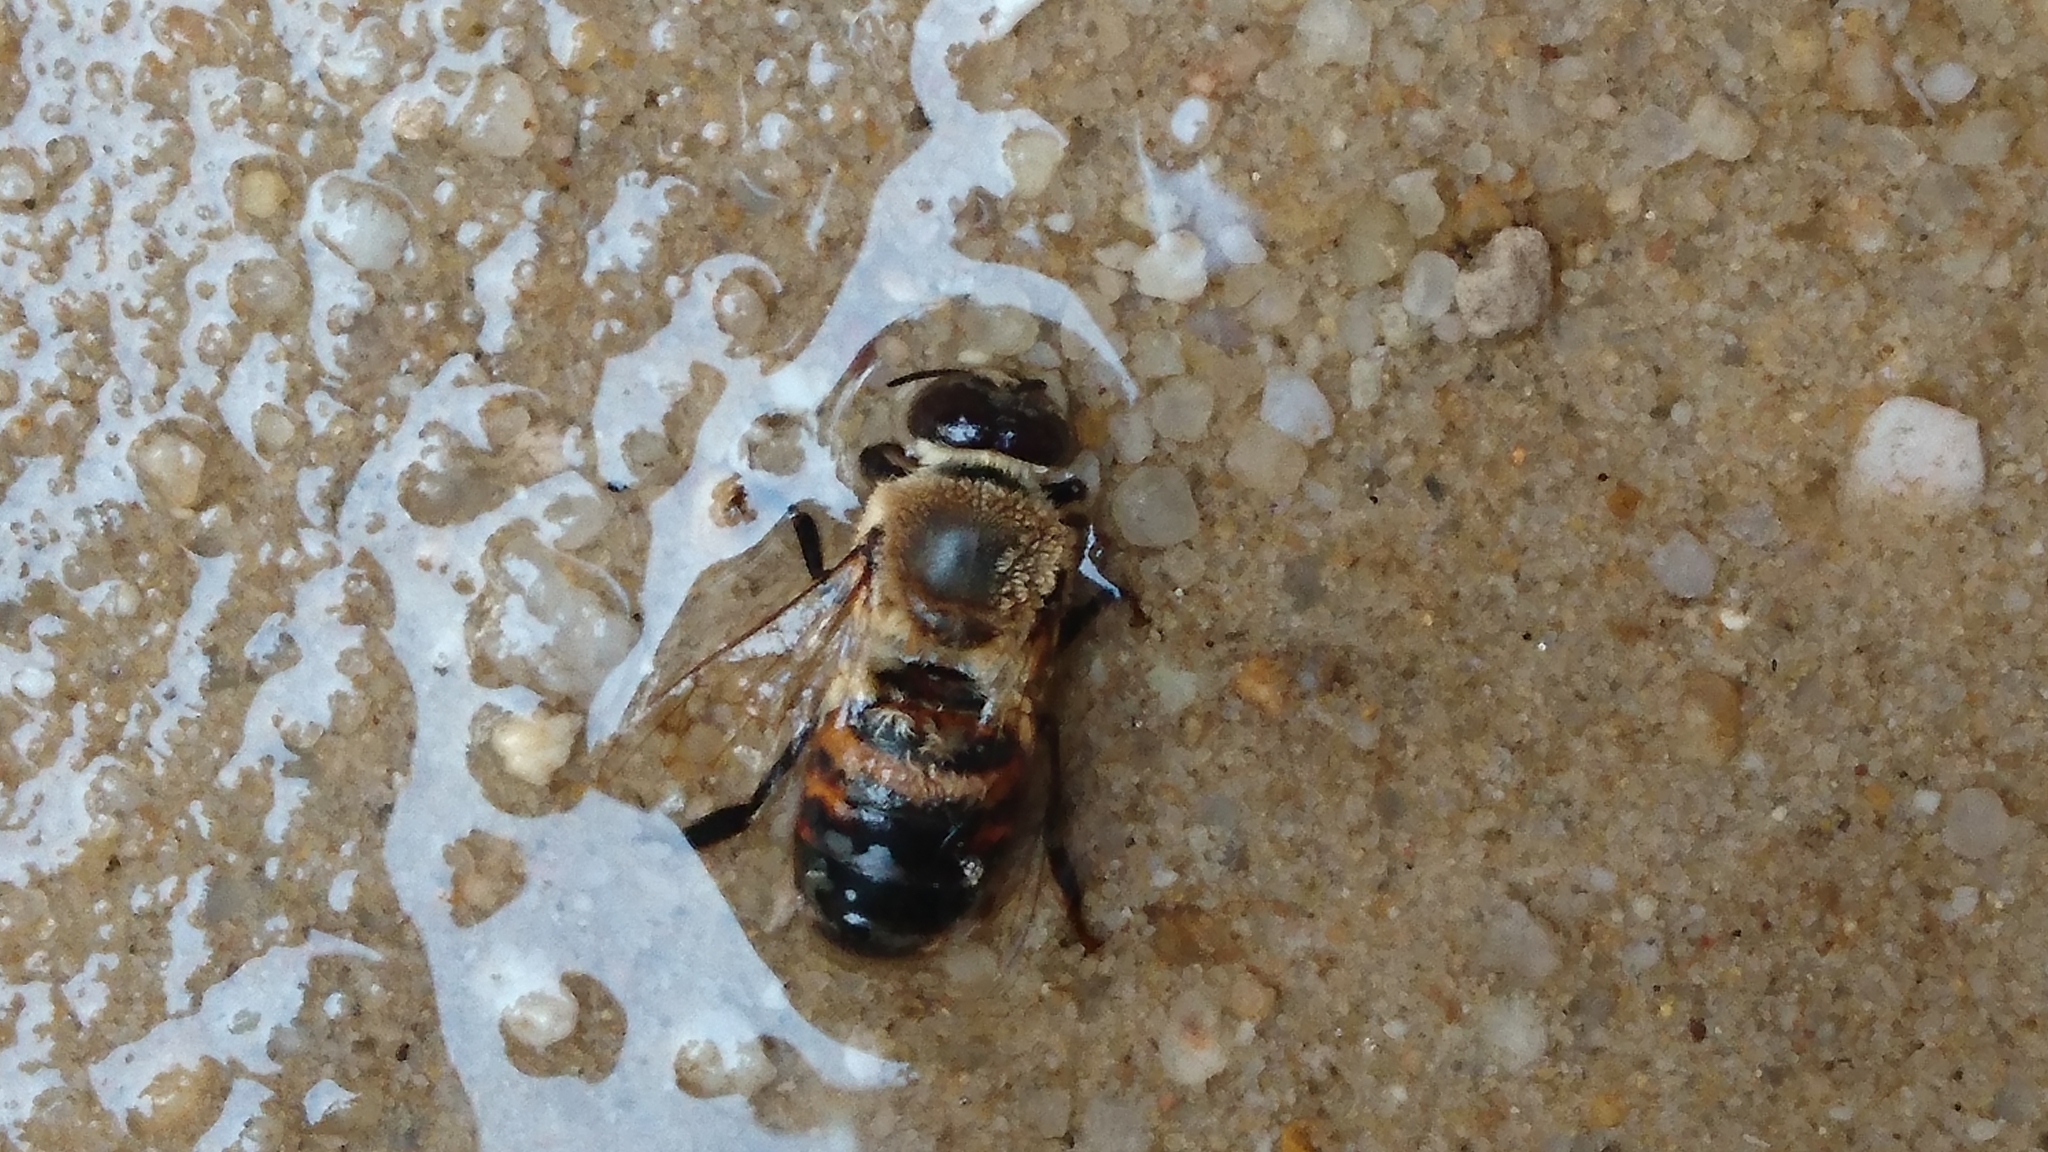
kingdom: Animalia
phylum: Arthropoda
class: Insecta
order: Hymenoptera
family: Apidae
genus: Apis
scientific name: Apis mellifera
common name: Honey bee
